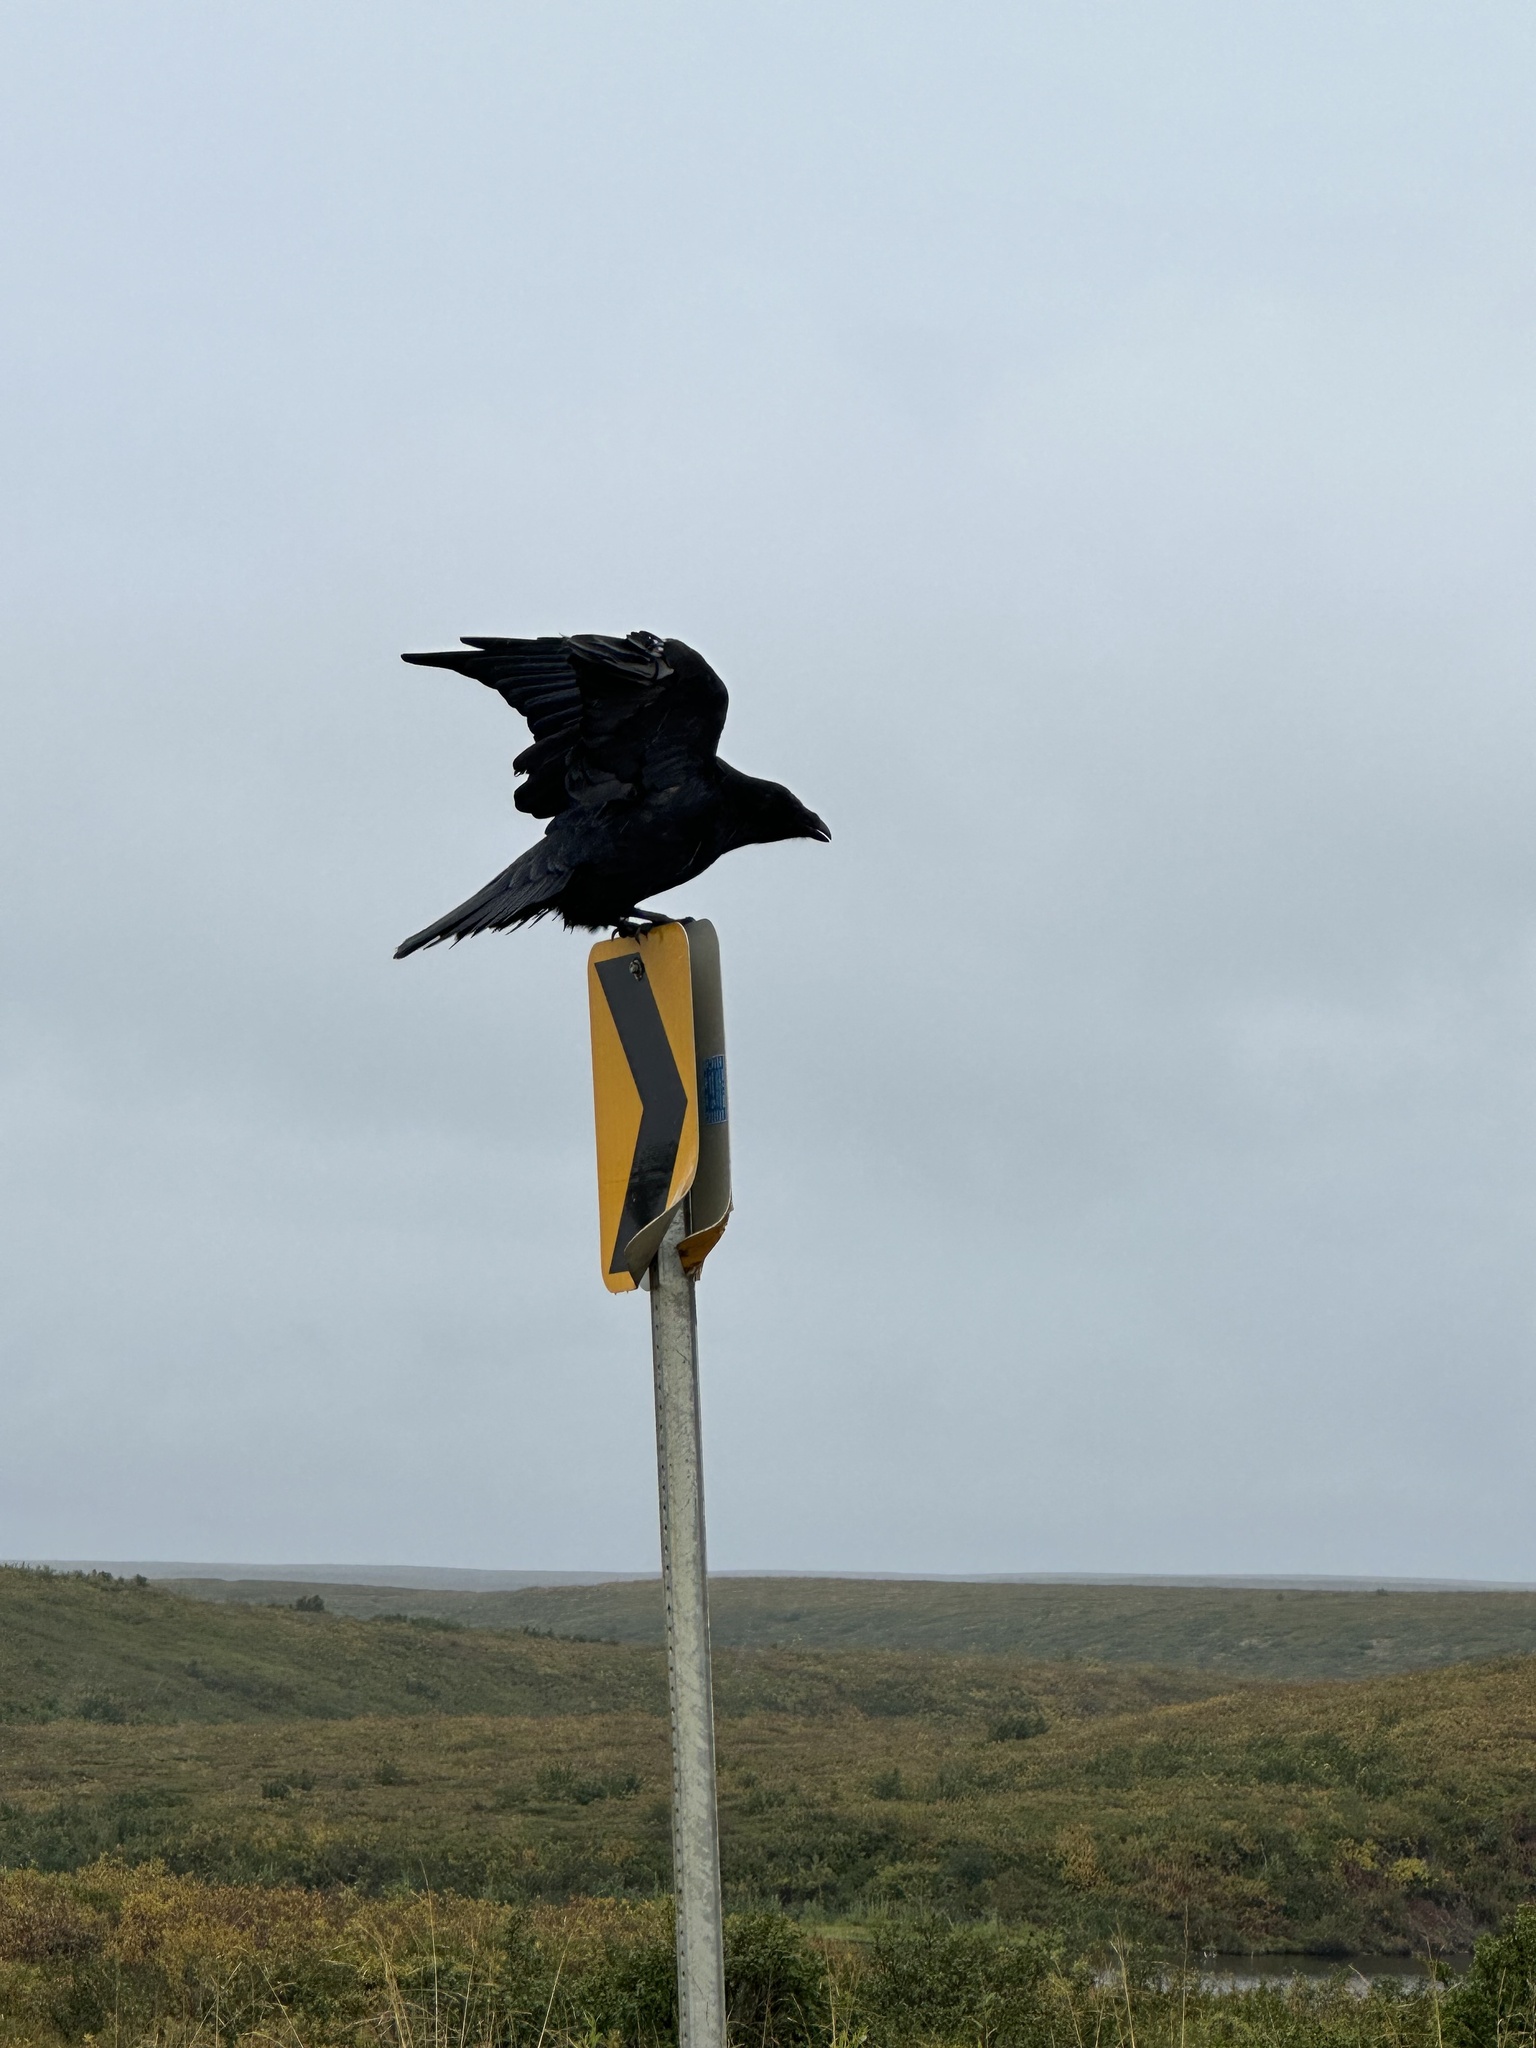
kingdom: Animalia
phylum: Chordata
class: Aves
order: Passeriformes
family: Corvidae
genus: Corvus
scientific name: Corvus corax
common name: Common raven
